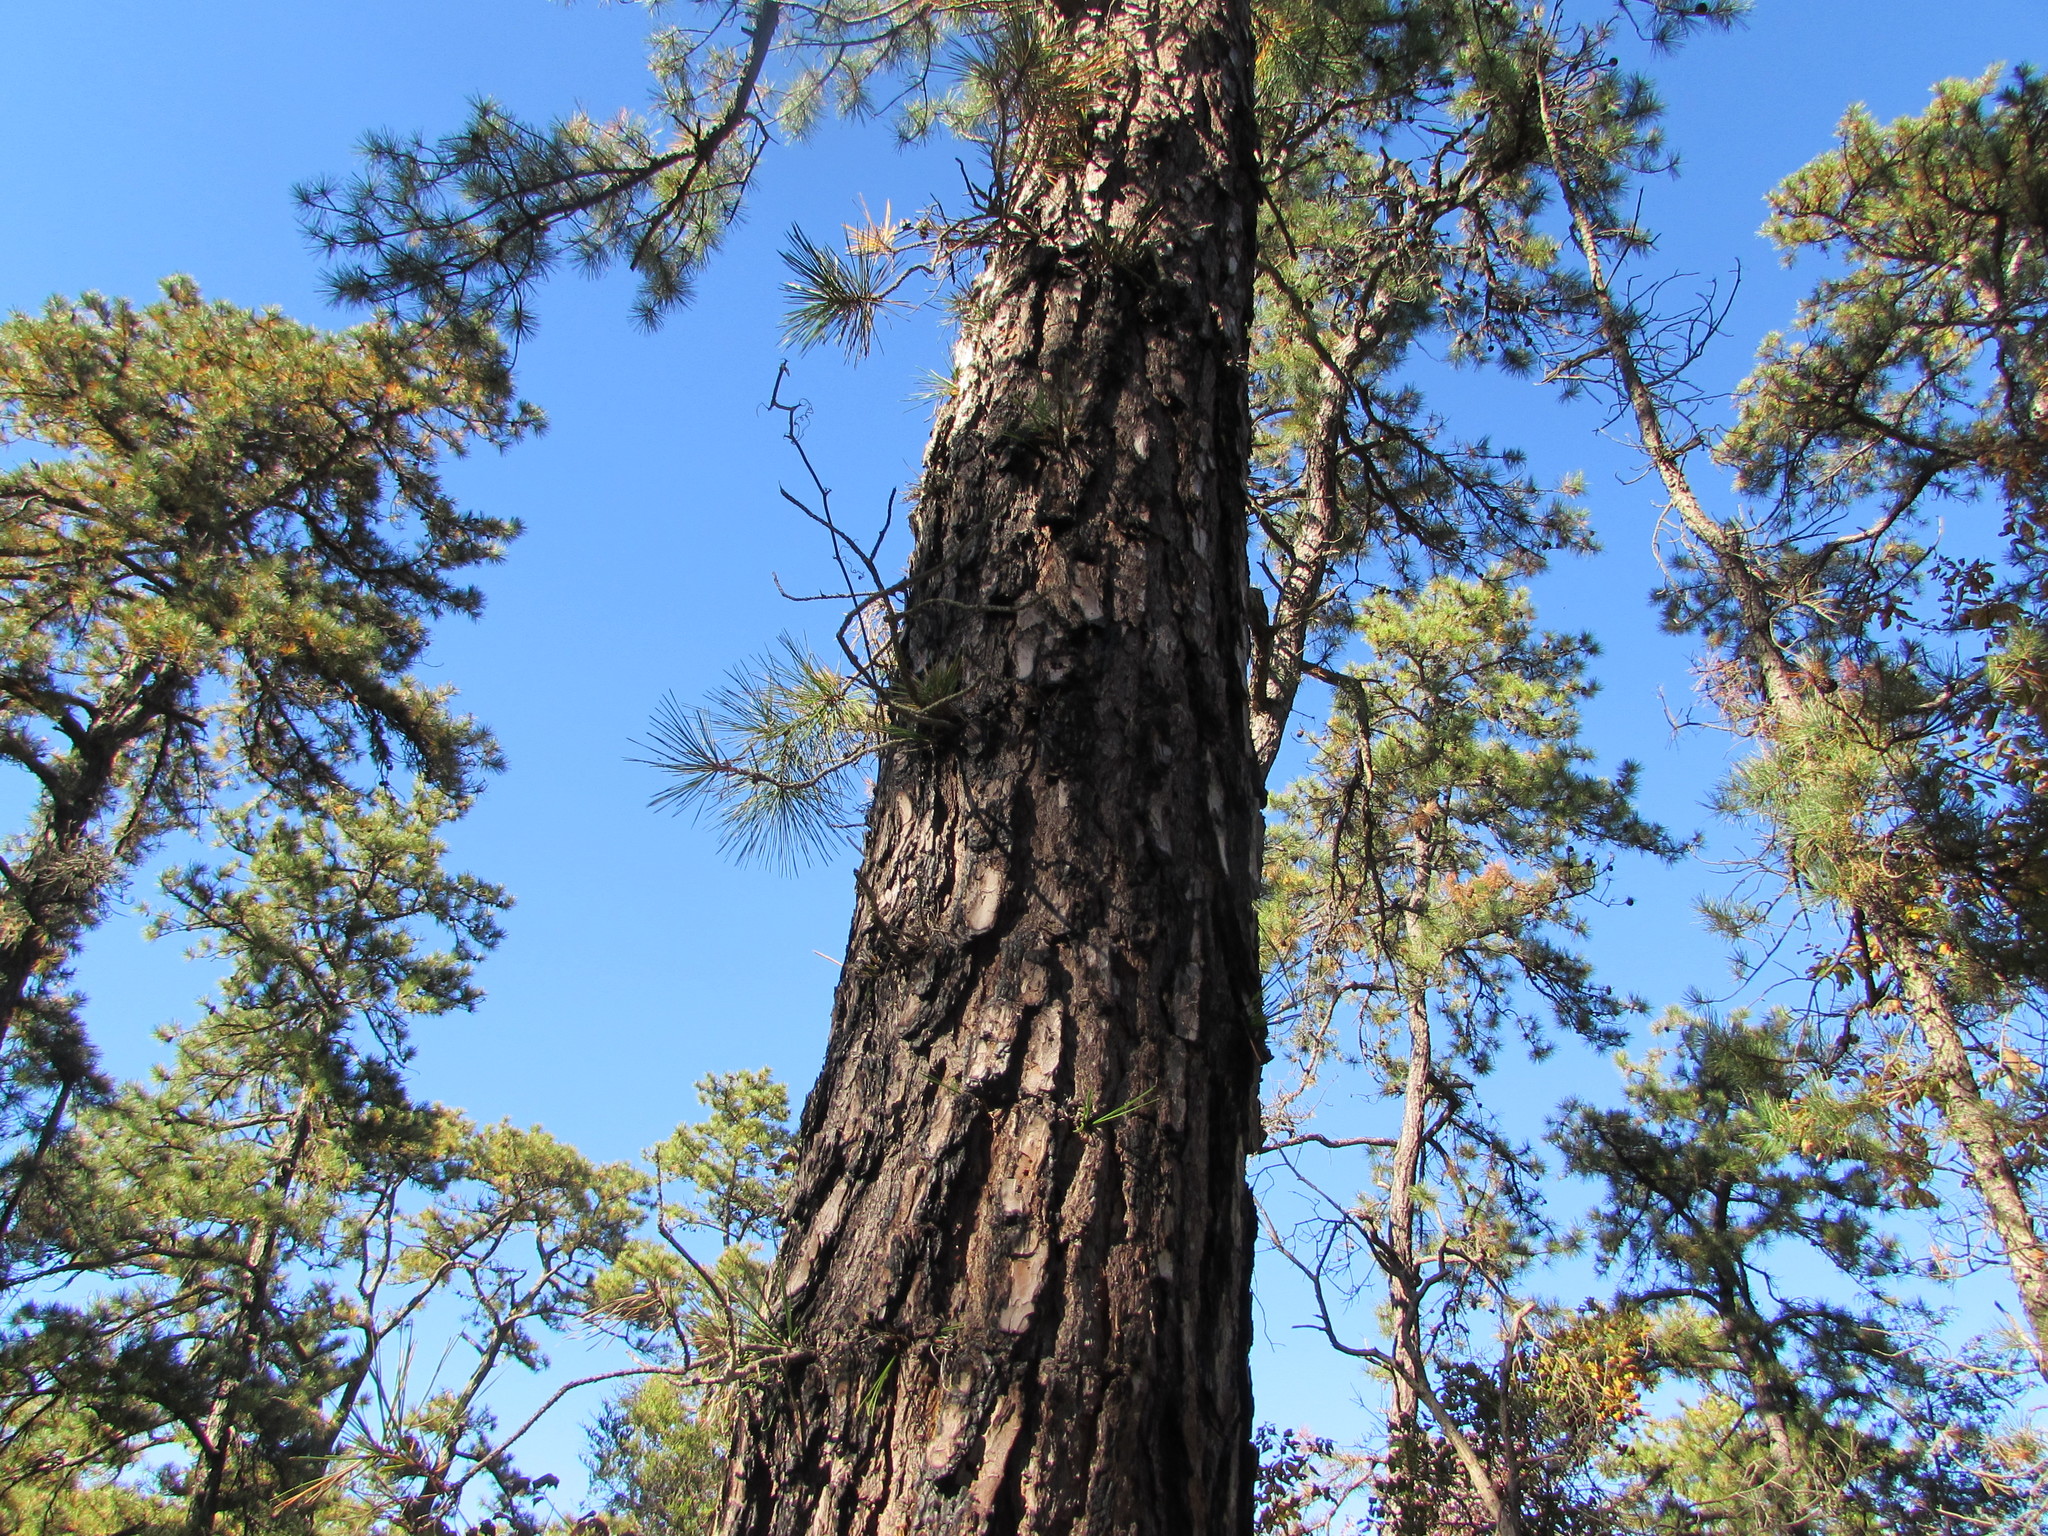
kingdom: Plantae
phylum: Tracheophyta
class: Pinopsida
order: Pinales
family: Pinaceae
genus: Pinus
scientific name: Pinus rigida
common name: Pitch pine
